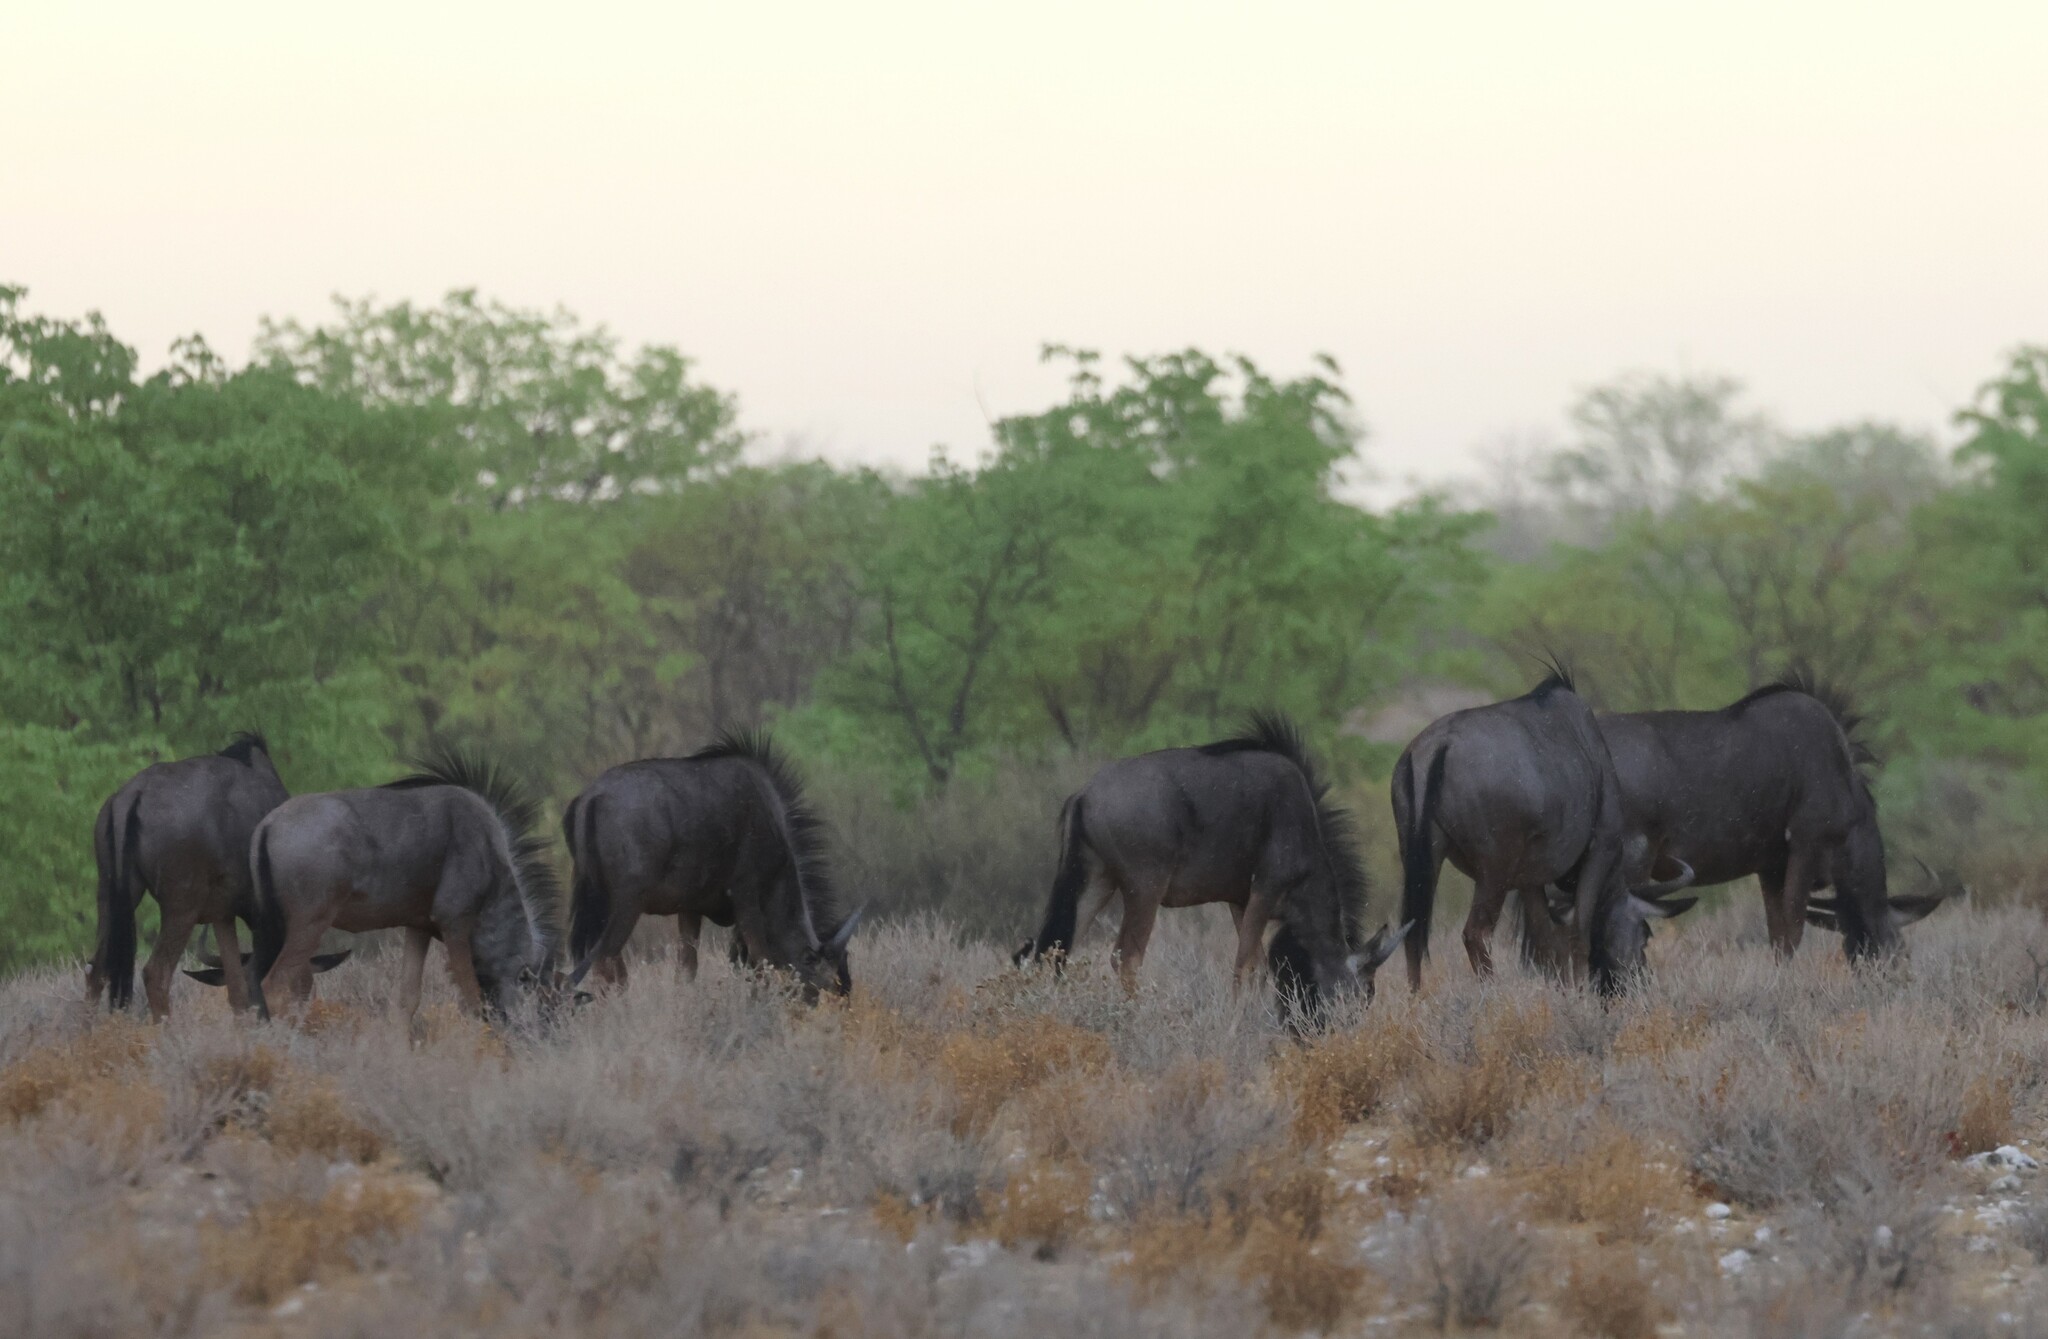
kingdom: Animalia
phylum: Chordata
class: Mammalia
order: Artiodactyla
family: Bovidae
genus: Connochaetes
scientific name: Connochaetes taurinus
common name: Blue wildebeest
